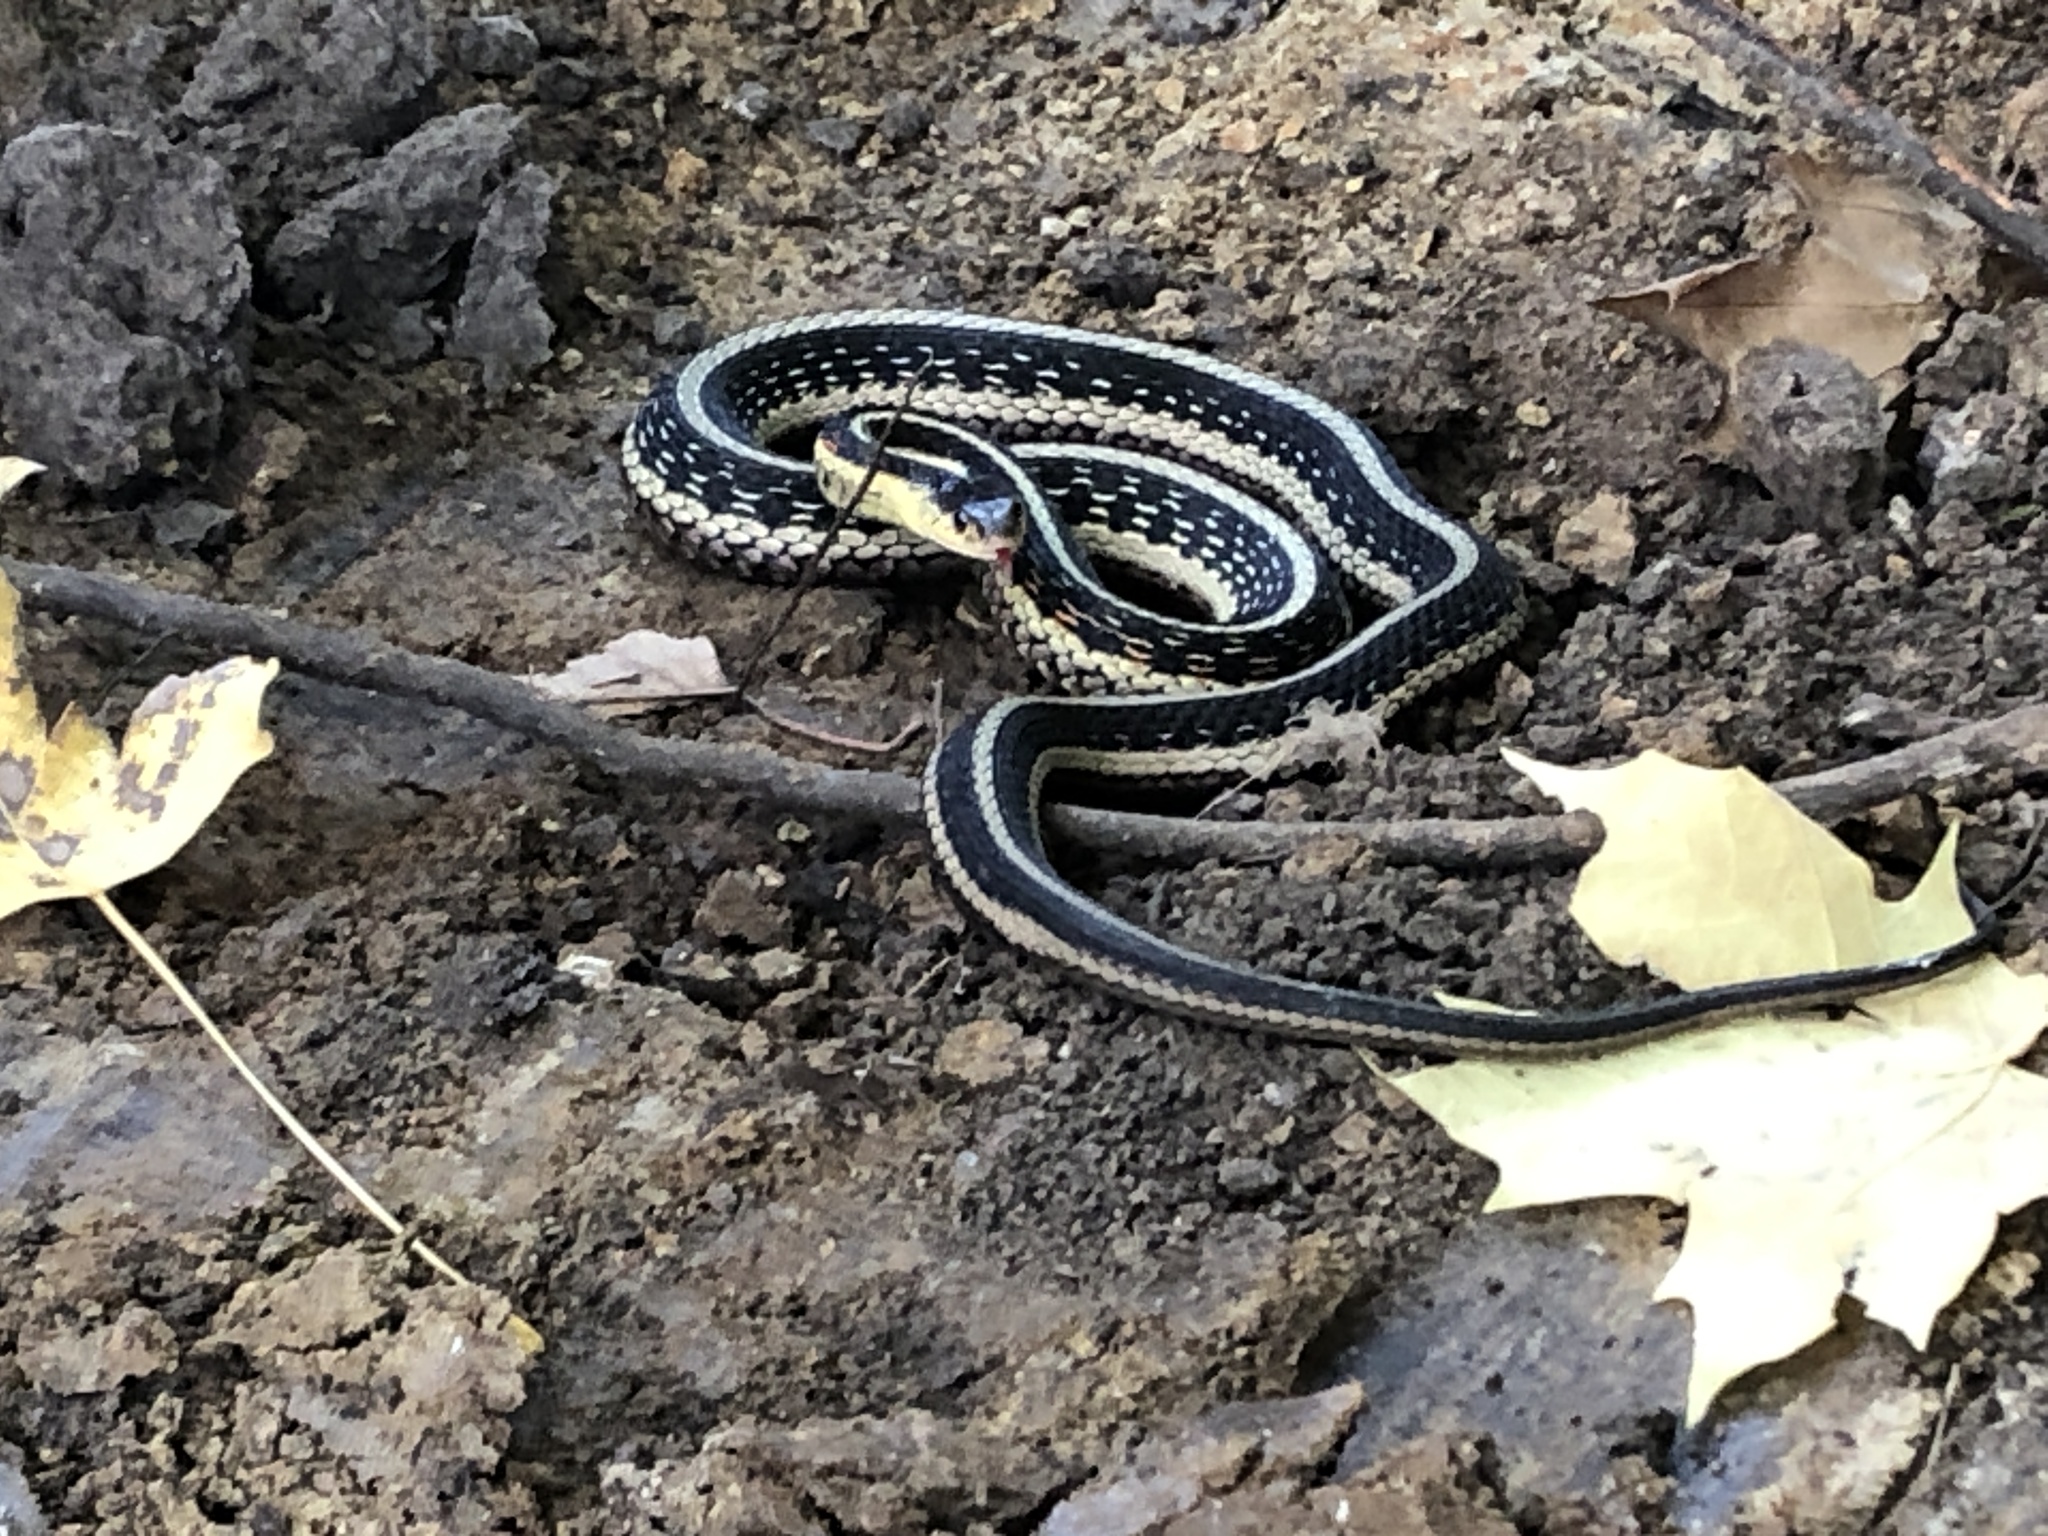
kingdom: Animalia
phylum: Chordata
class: Squamata
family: Colubridae
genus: Thamnophis
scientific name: Thamnophis sirtalis
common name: Common garter snake
